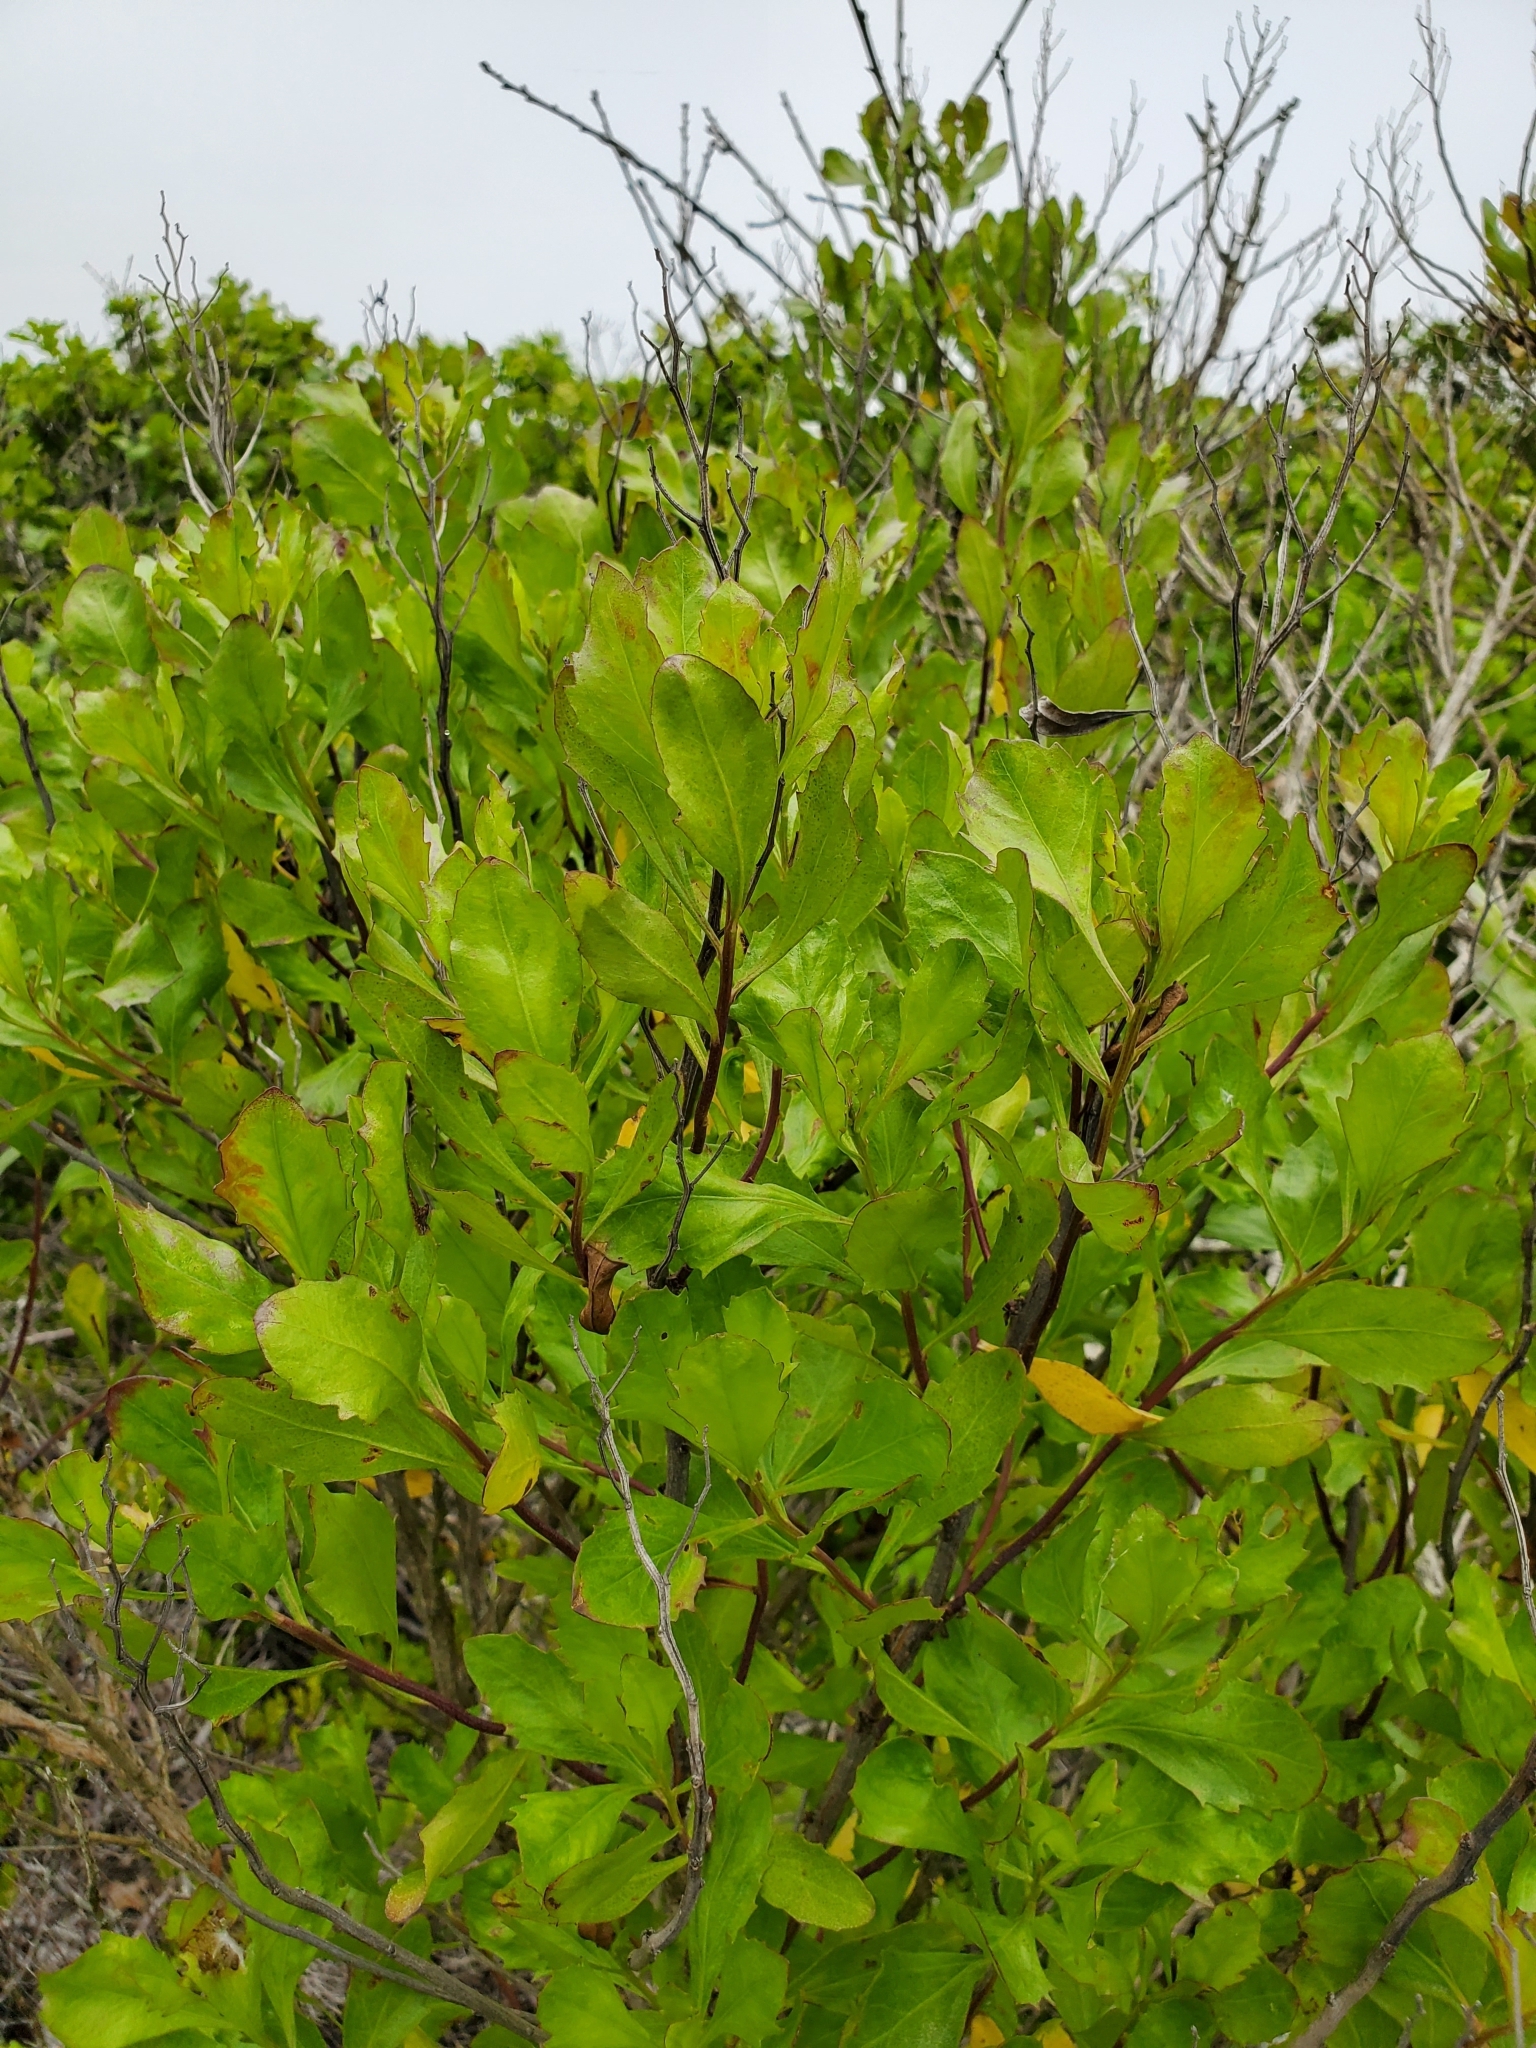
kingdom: Plantae
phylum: Tracheophyta
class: Magnoliopsida
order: Asterales
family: Asteraceae
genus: Baccharis
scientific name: Baccharis halimifolia
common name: Eastern baccharis
